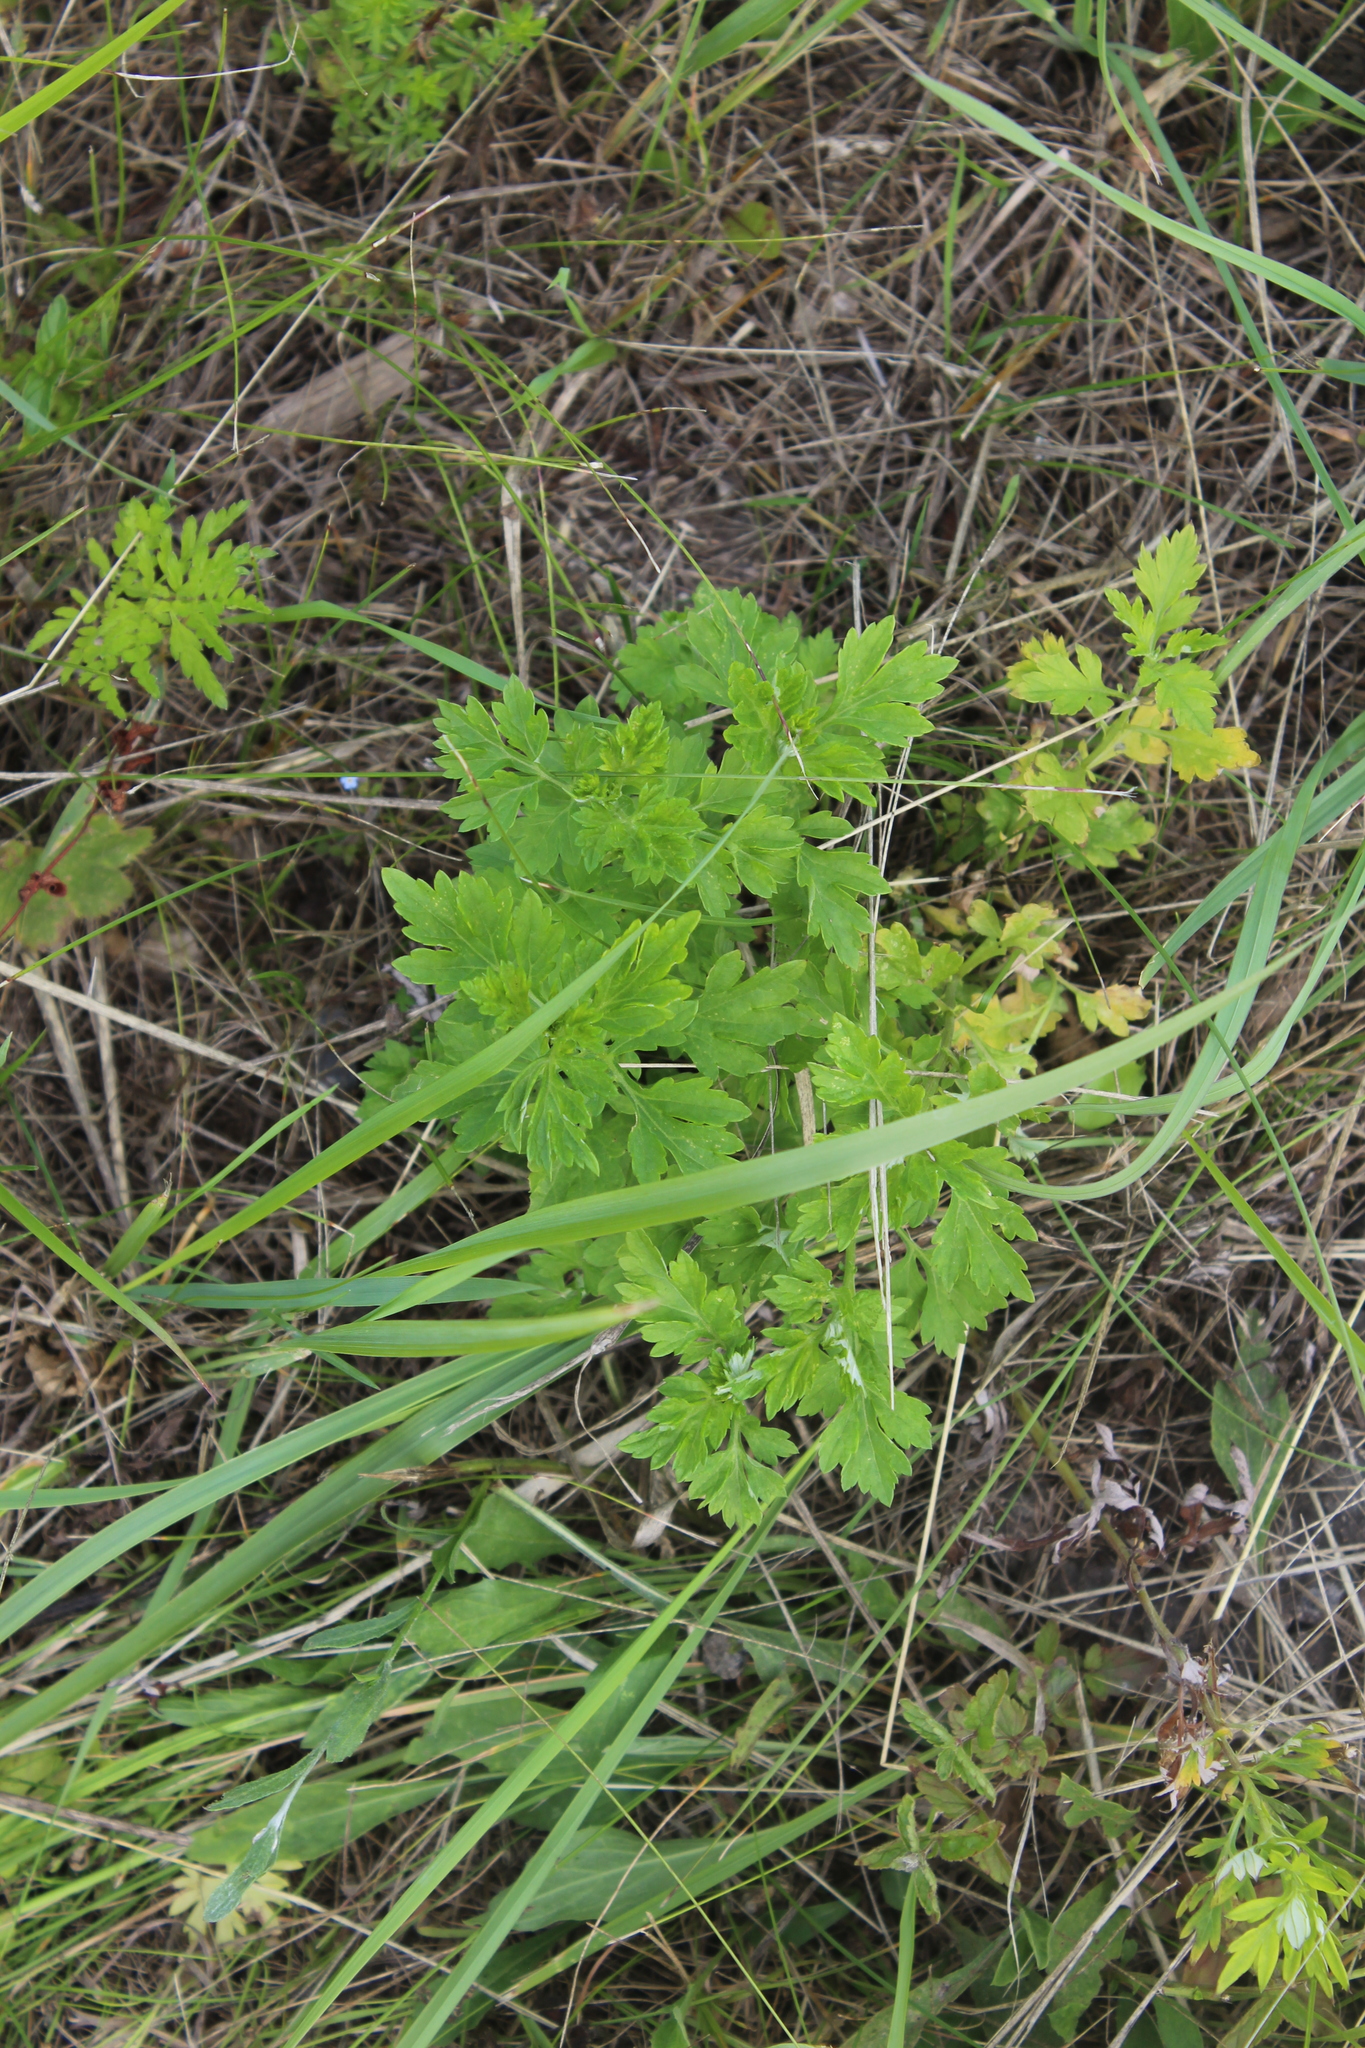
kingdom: Plantae
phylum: Tracheophyta
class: Magnoliopsida
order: Asterales
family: Asteraceae
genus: Artemisia
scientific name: Artemisia vulgaris
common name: Mugwort
